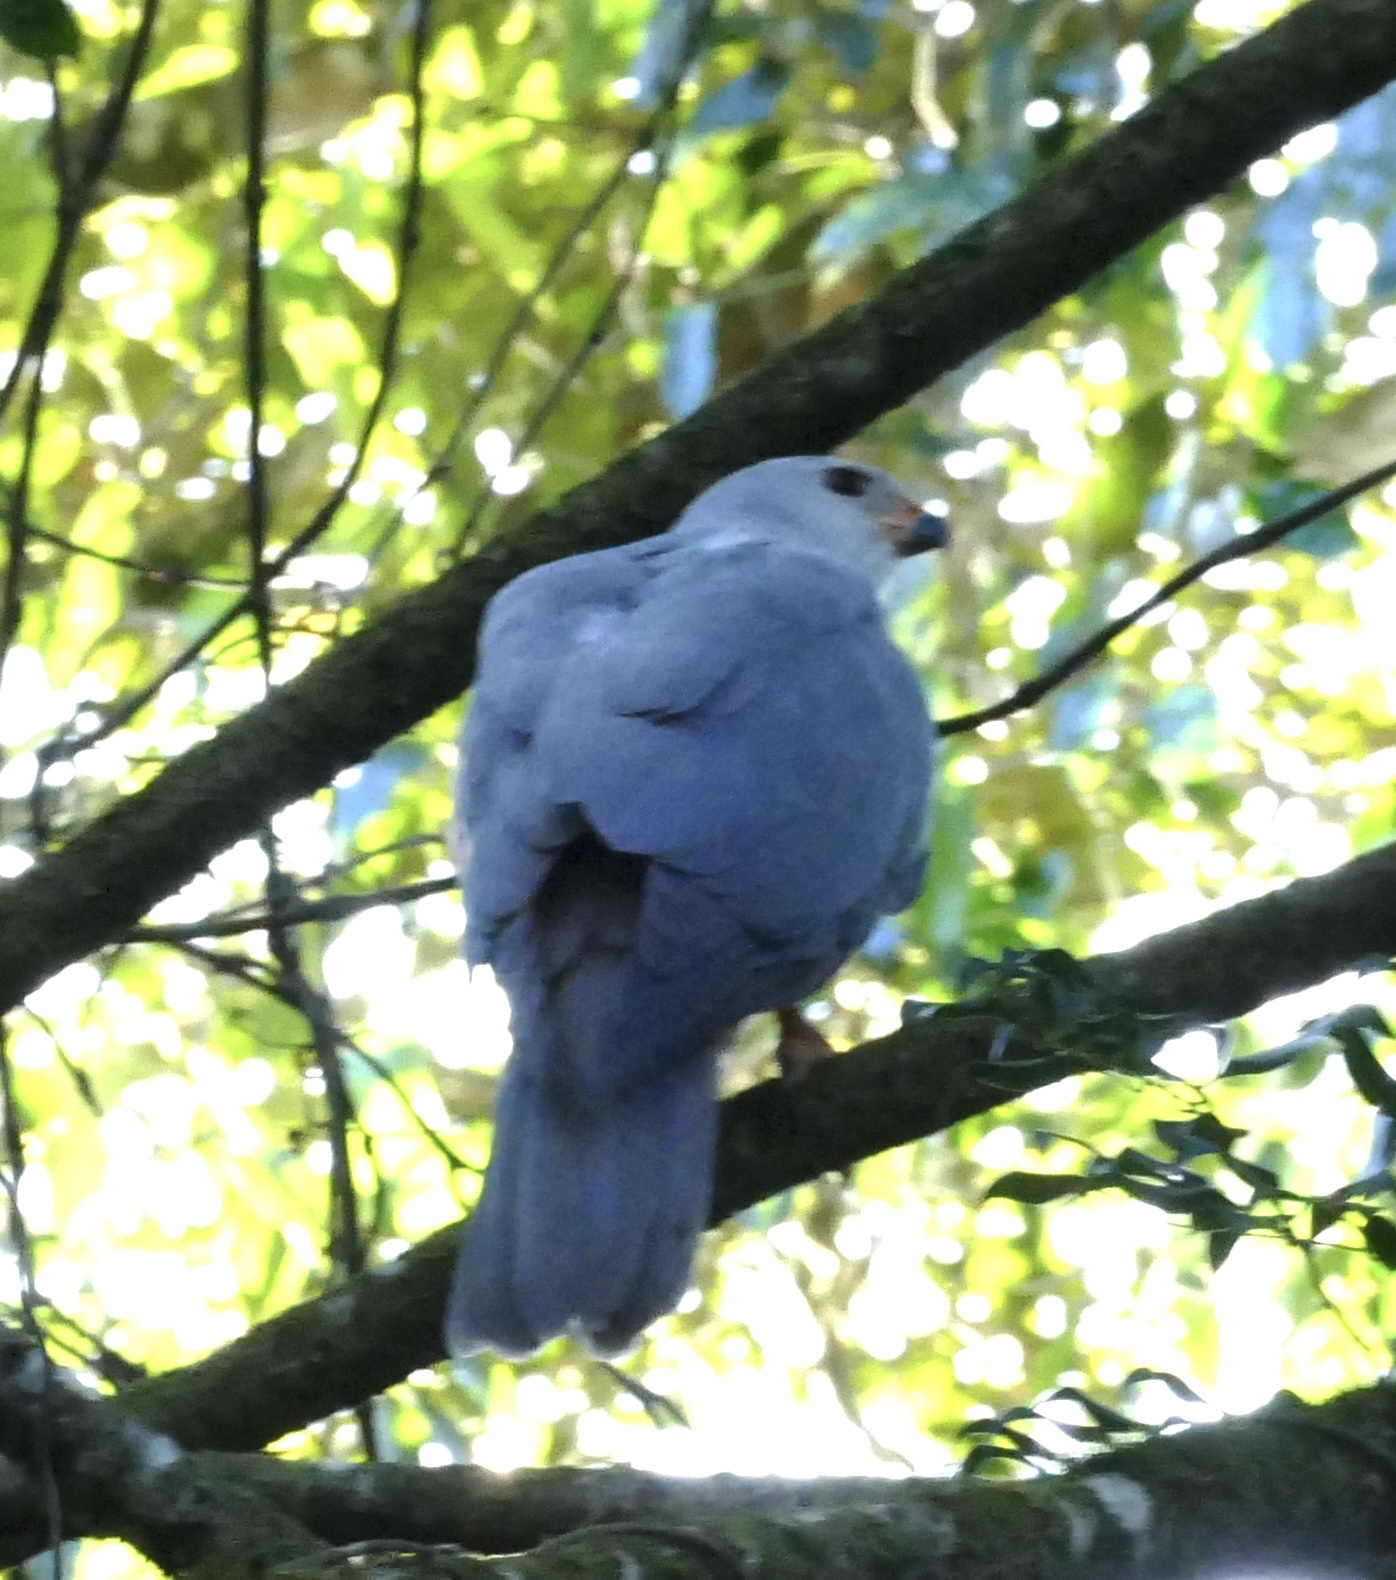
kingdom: Animalia
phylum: Chordata
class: Aves
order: Accipitriformes
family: Accipitridae
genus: Accipiter
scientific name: Accipiter novaehollandiae
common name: Grey goshawk
